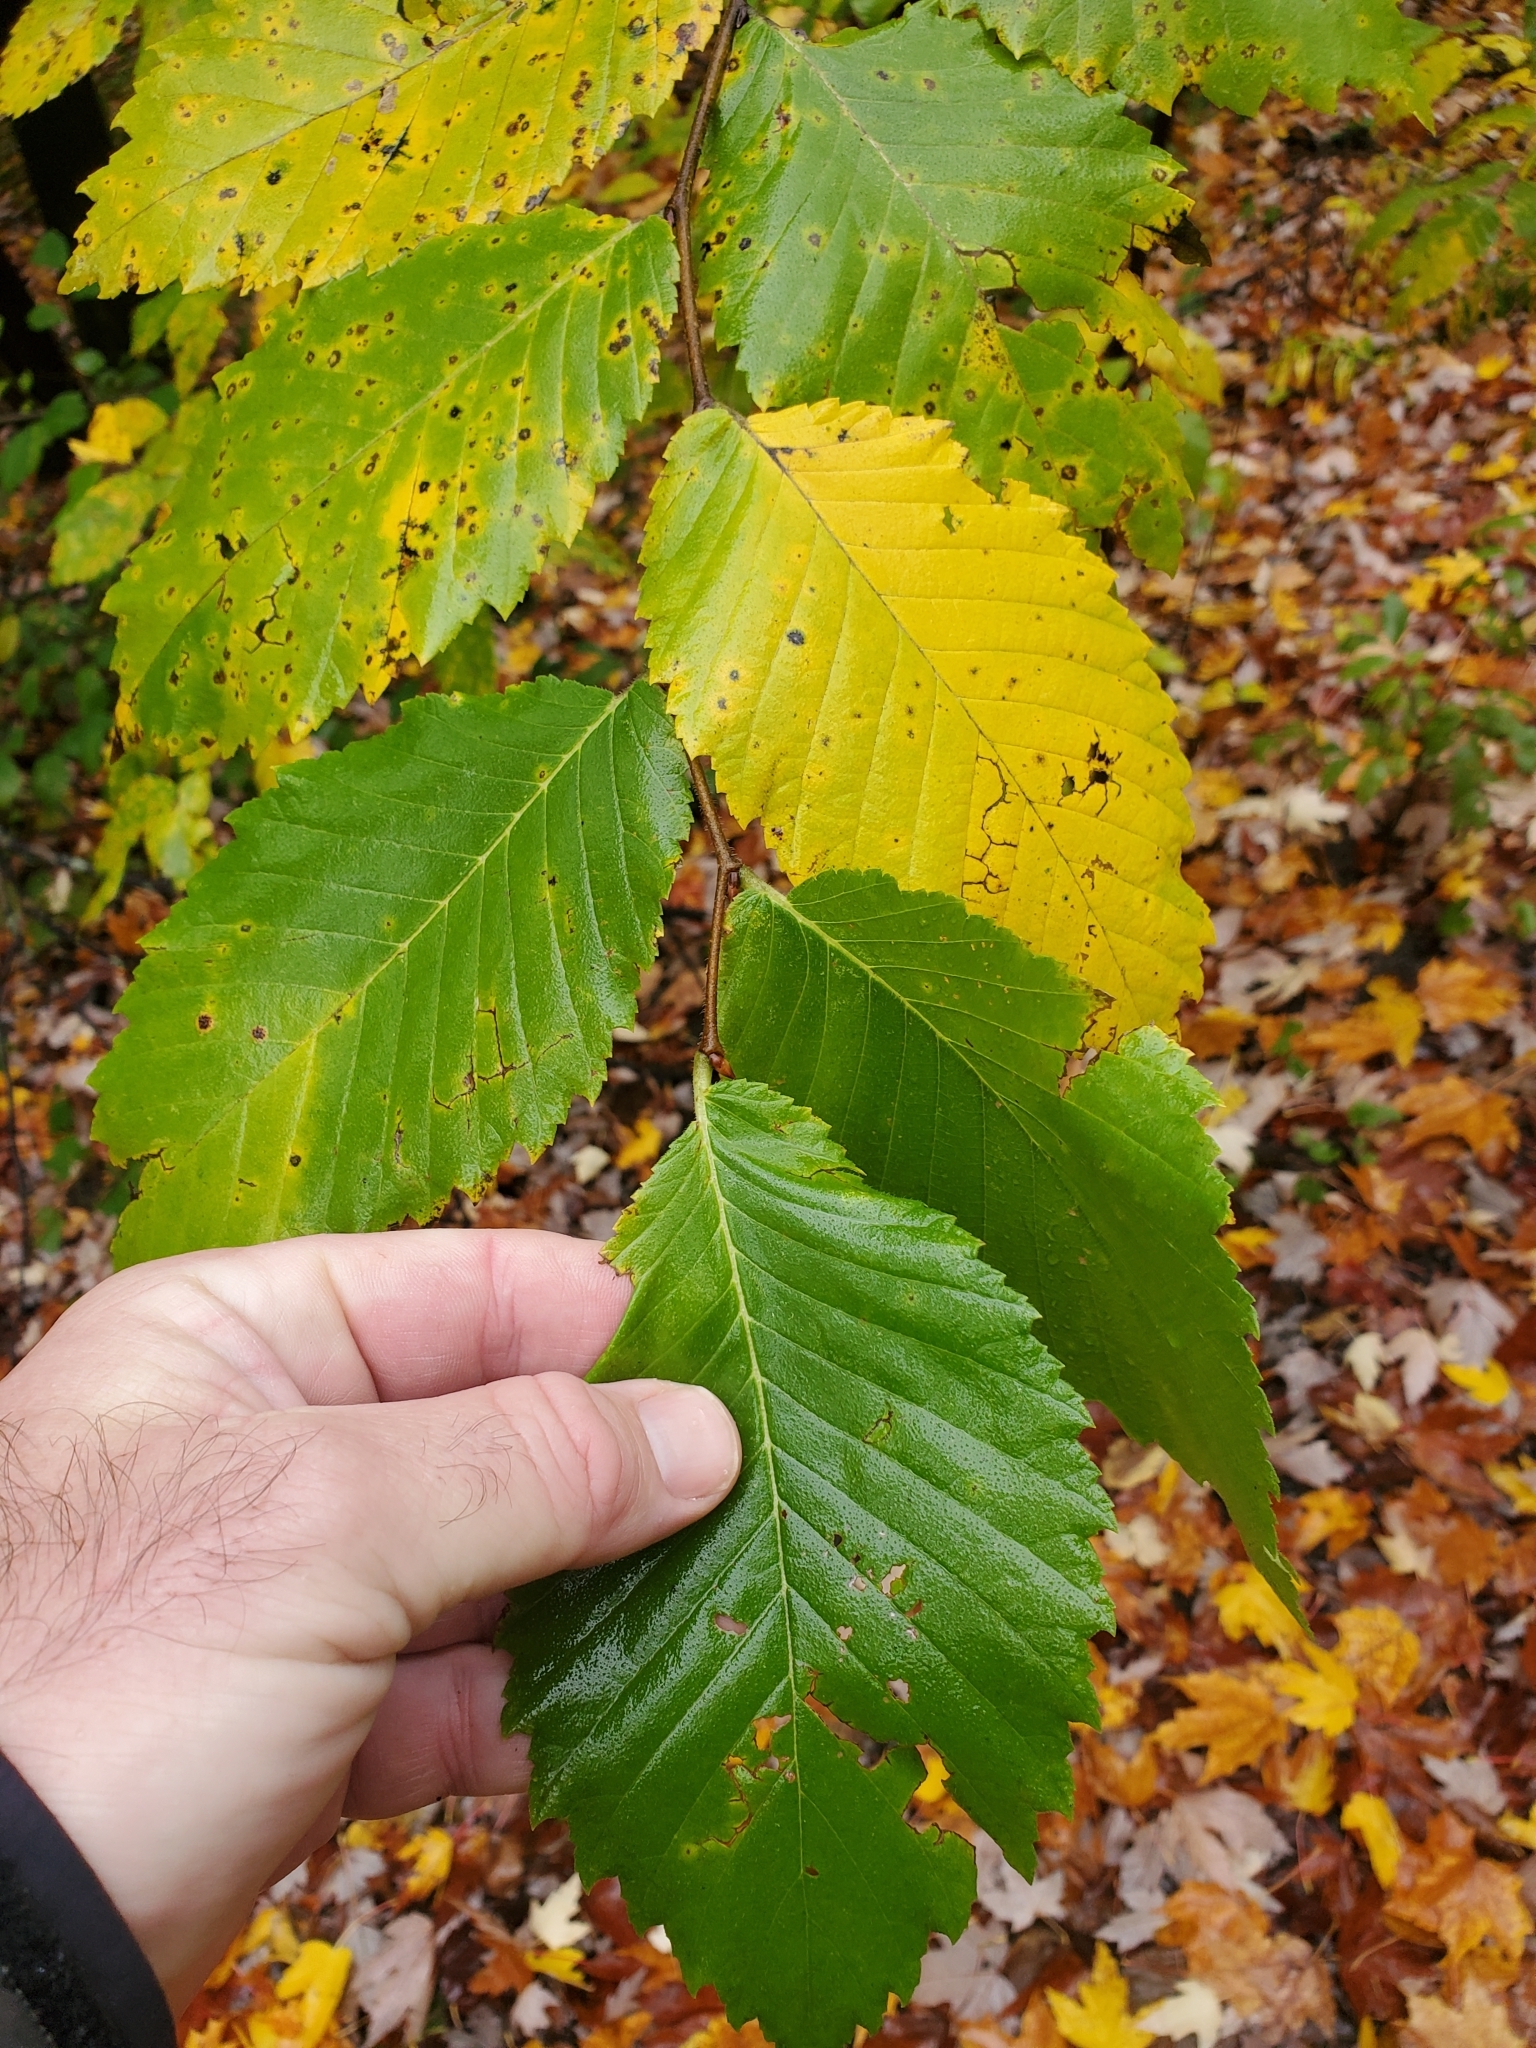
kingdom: Plantae
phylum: Tracheophyta
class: Magnoliopsida
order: Rosales
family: Ulmaceae
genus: Ulmus
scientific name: Ulmus americana
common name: American elm
